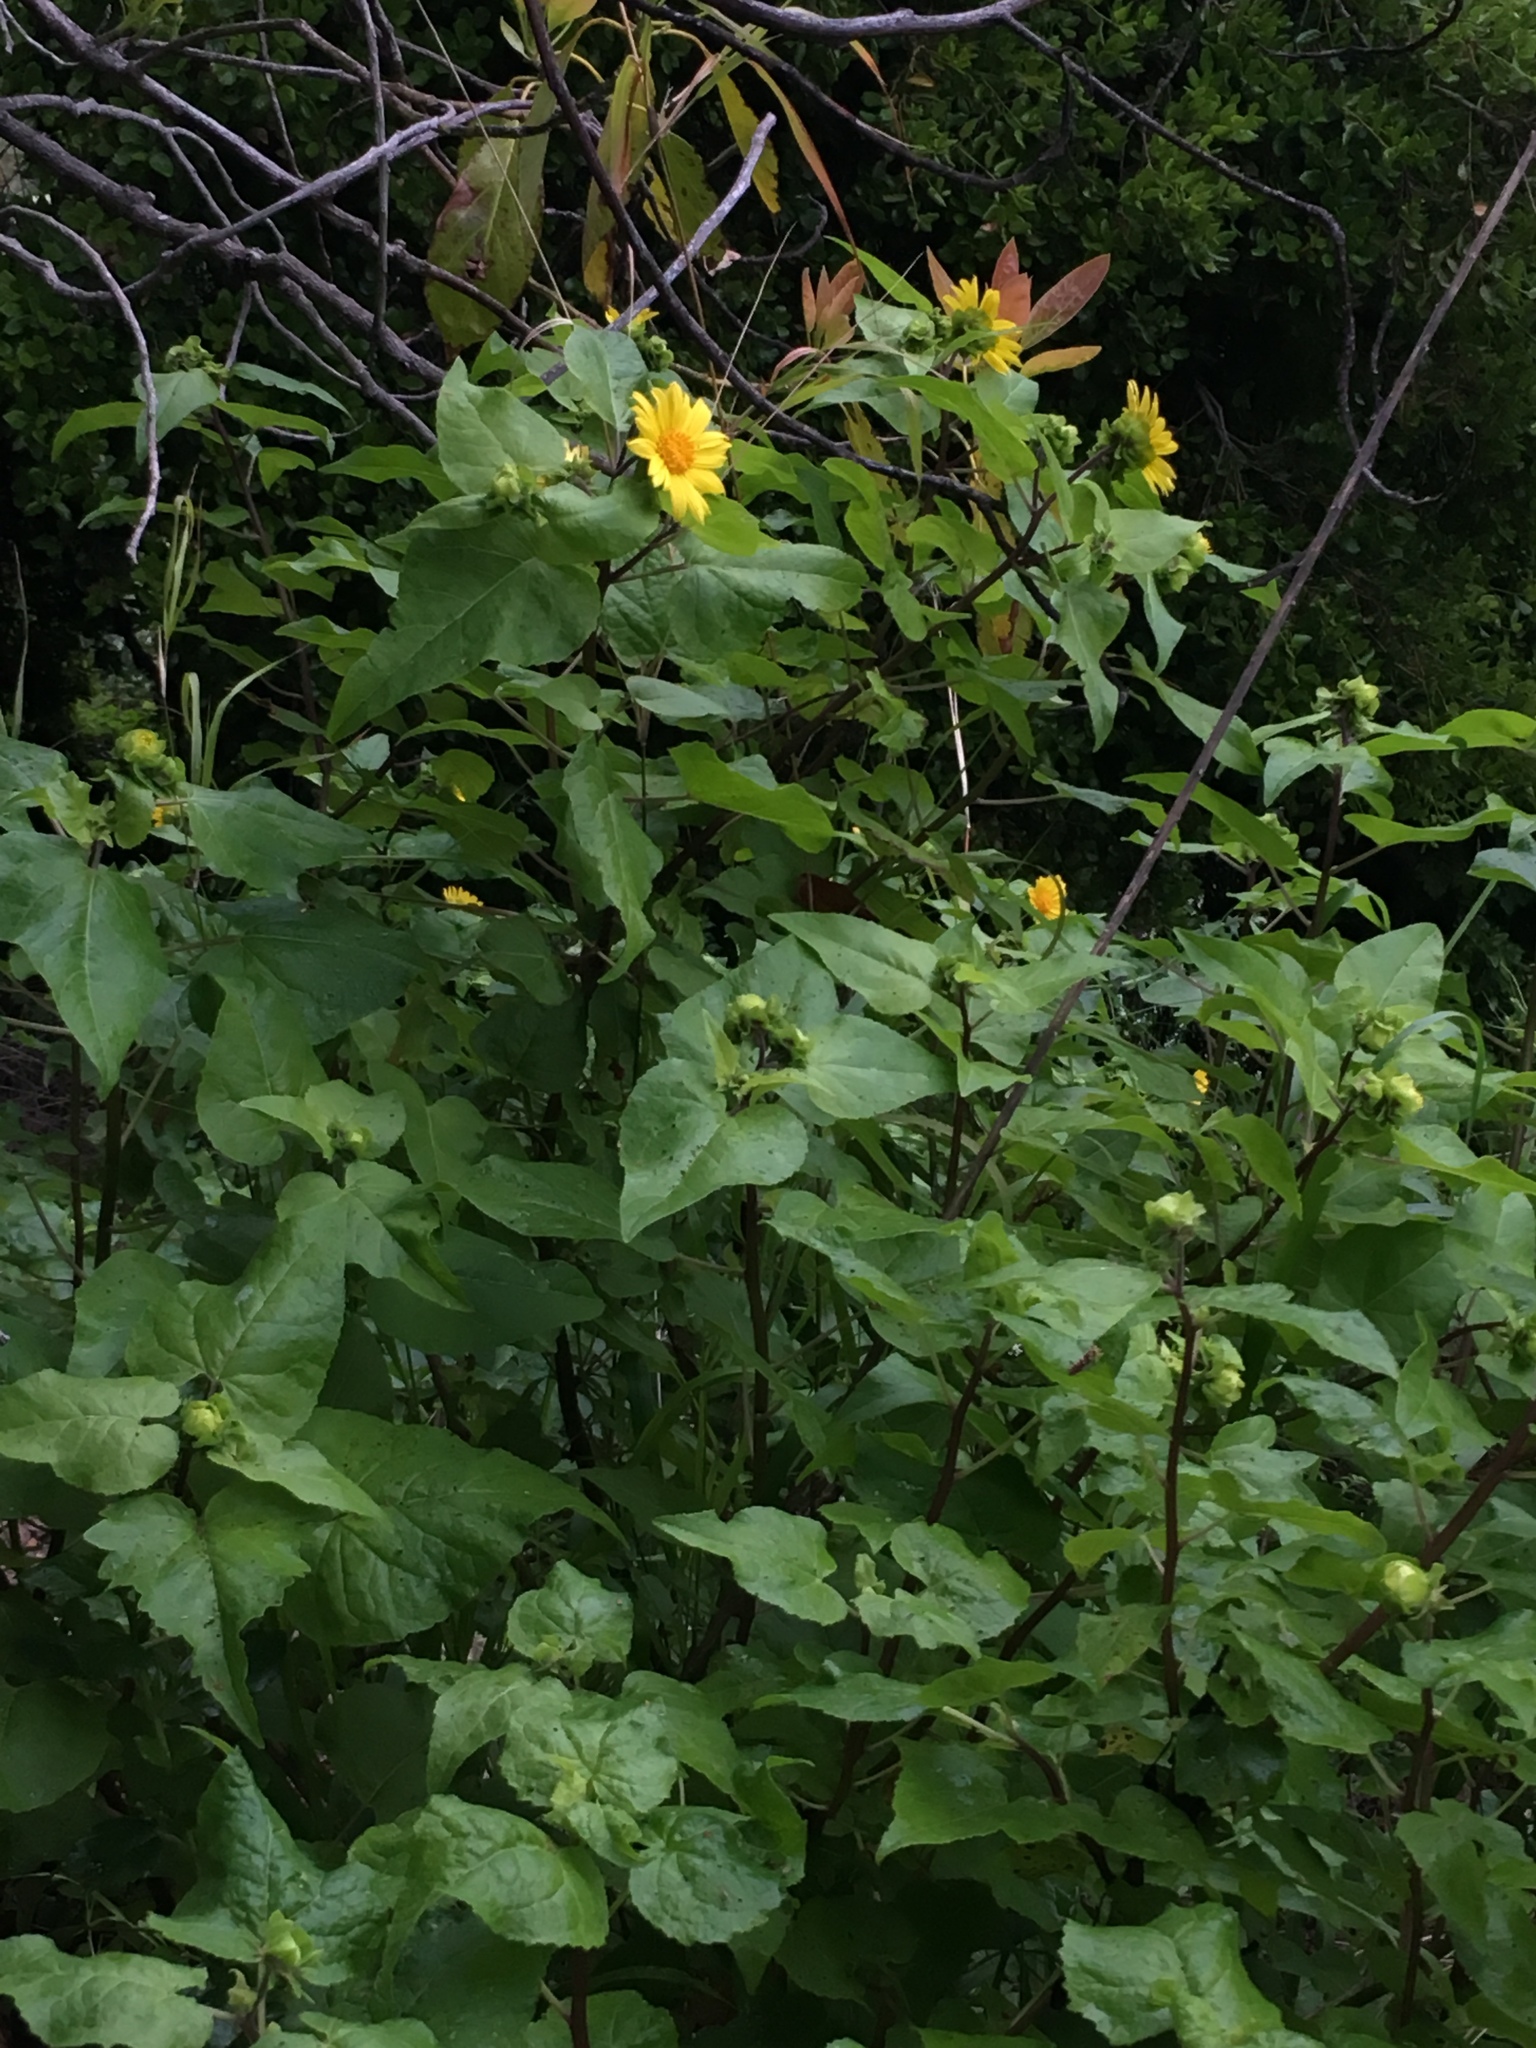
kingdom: Plantae
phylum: Tracheophyta
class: Magnoliopsida
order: Asterales
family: Asteraceae
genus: Venegasia
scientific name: Venegasia carpesioides
